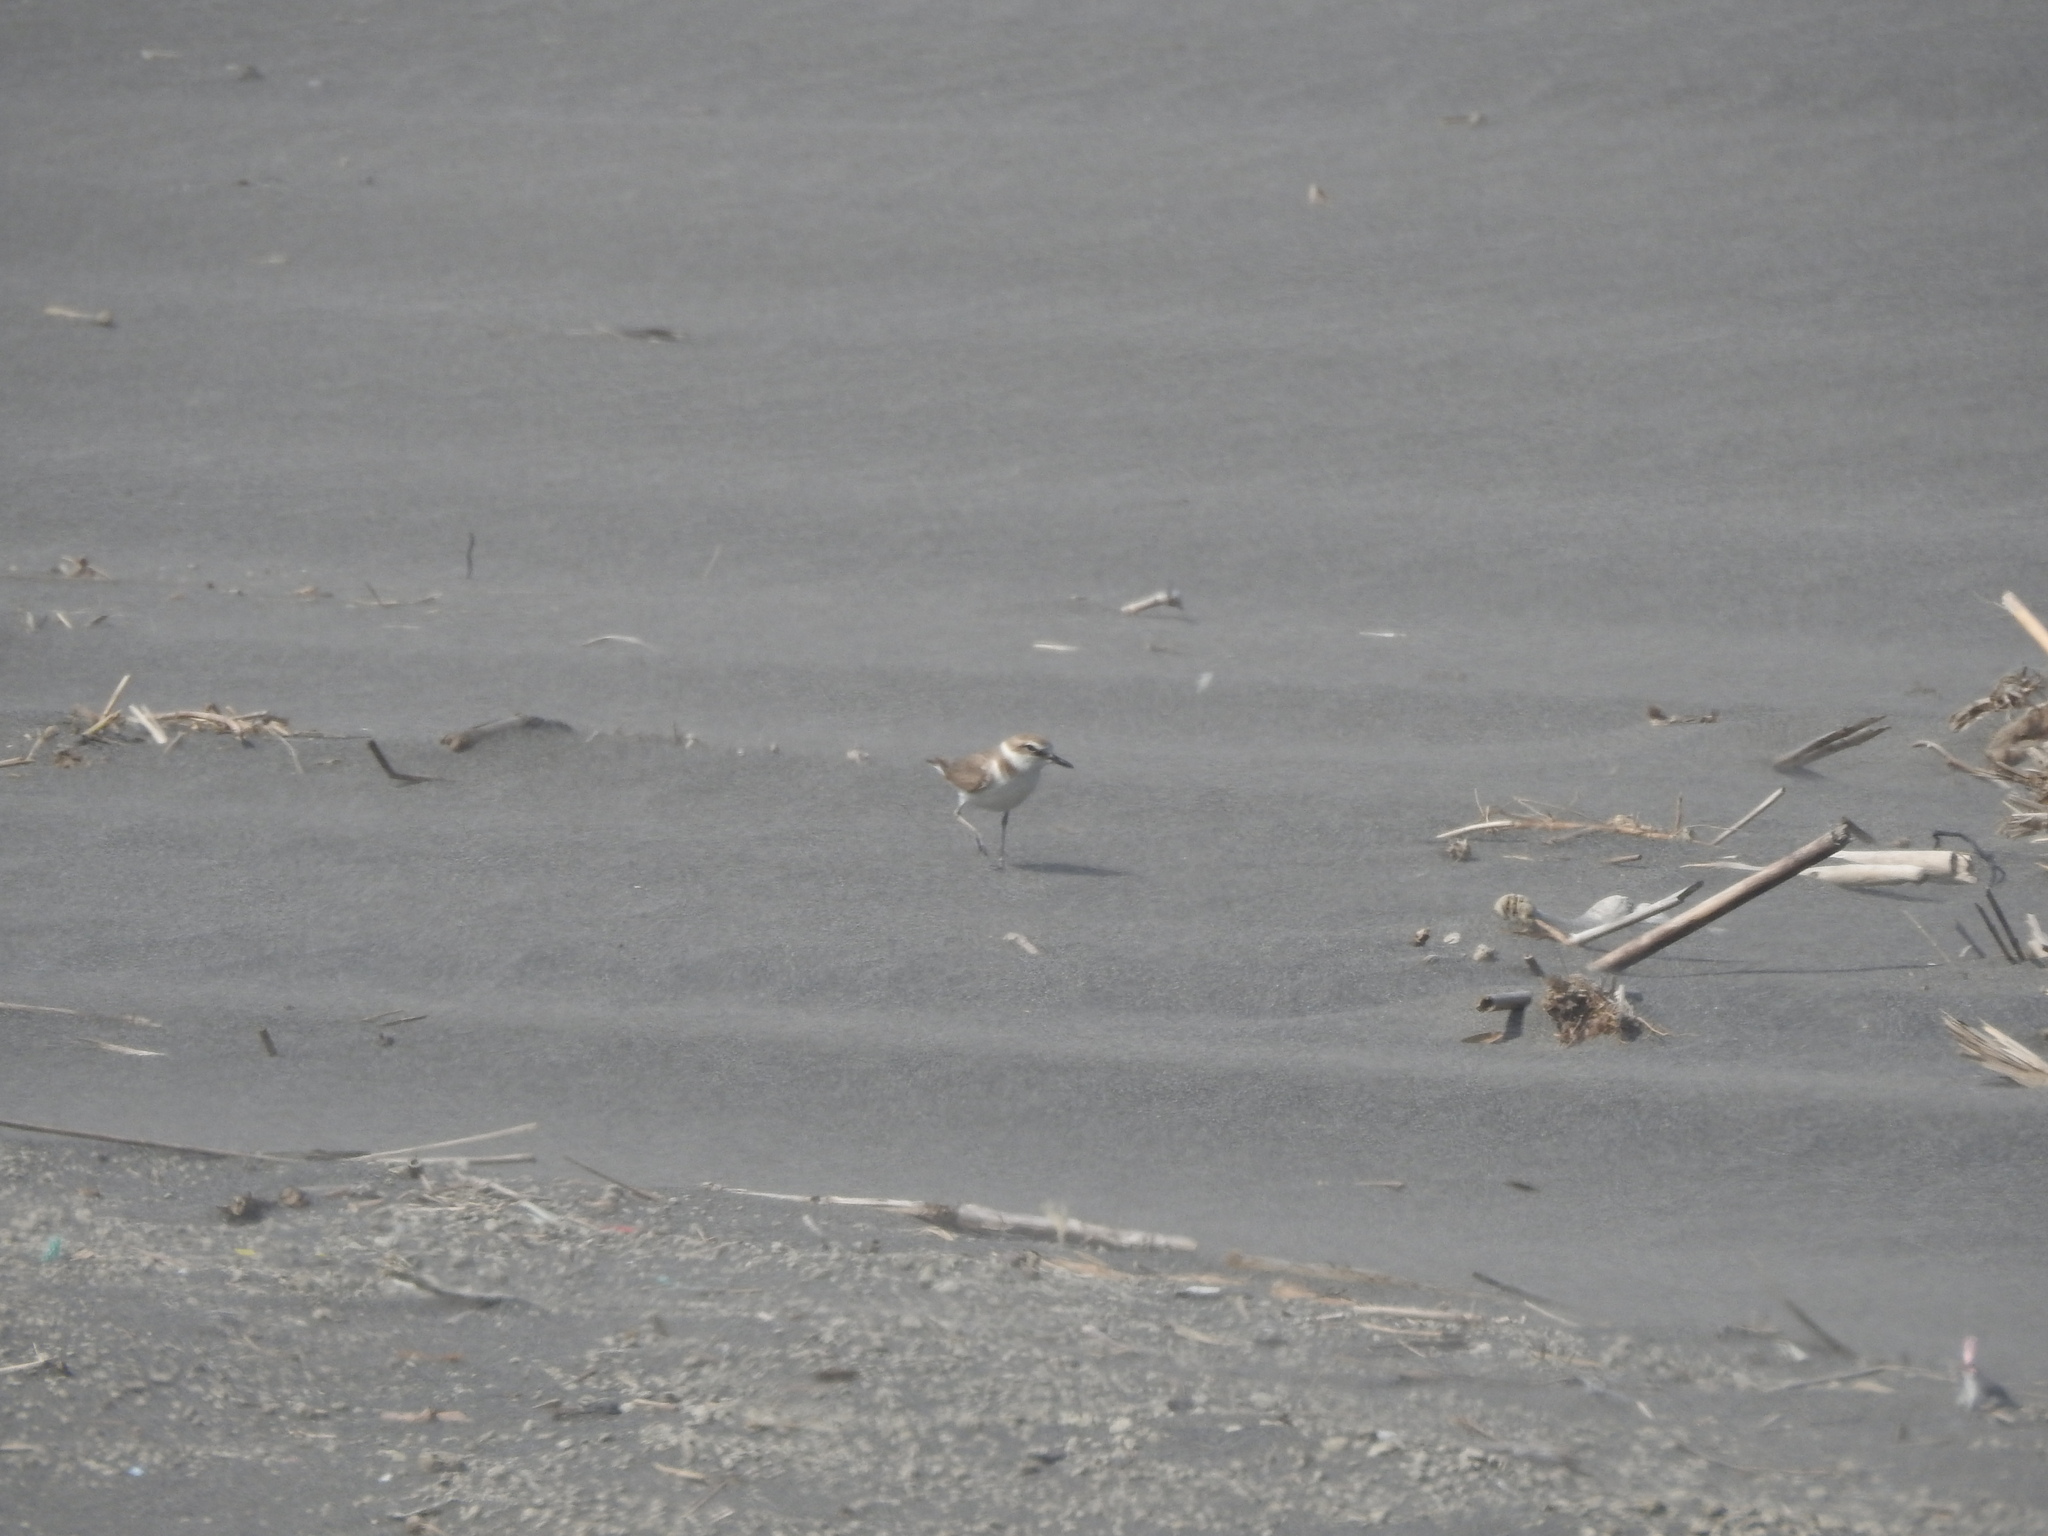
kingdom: Animalia
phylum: Chordata
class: Aves
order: Charadriiformes
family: Charadriidae
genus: Charadrius
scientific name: Charadrius alexandrinus
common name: Kentish plover
